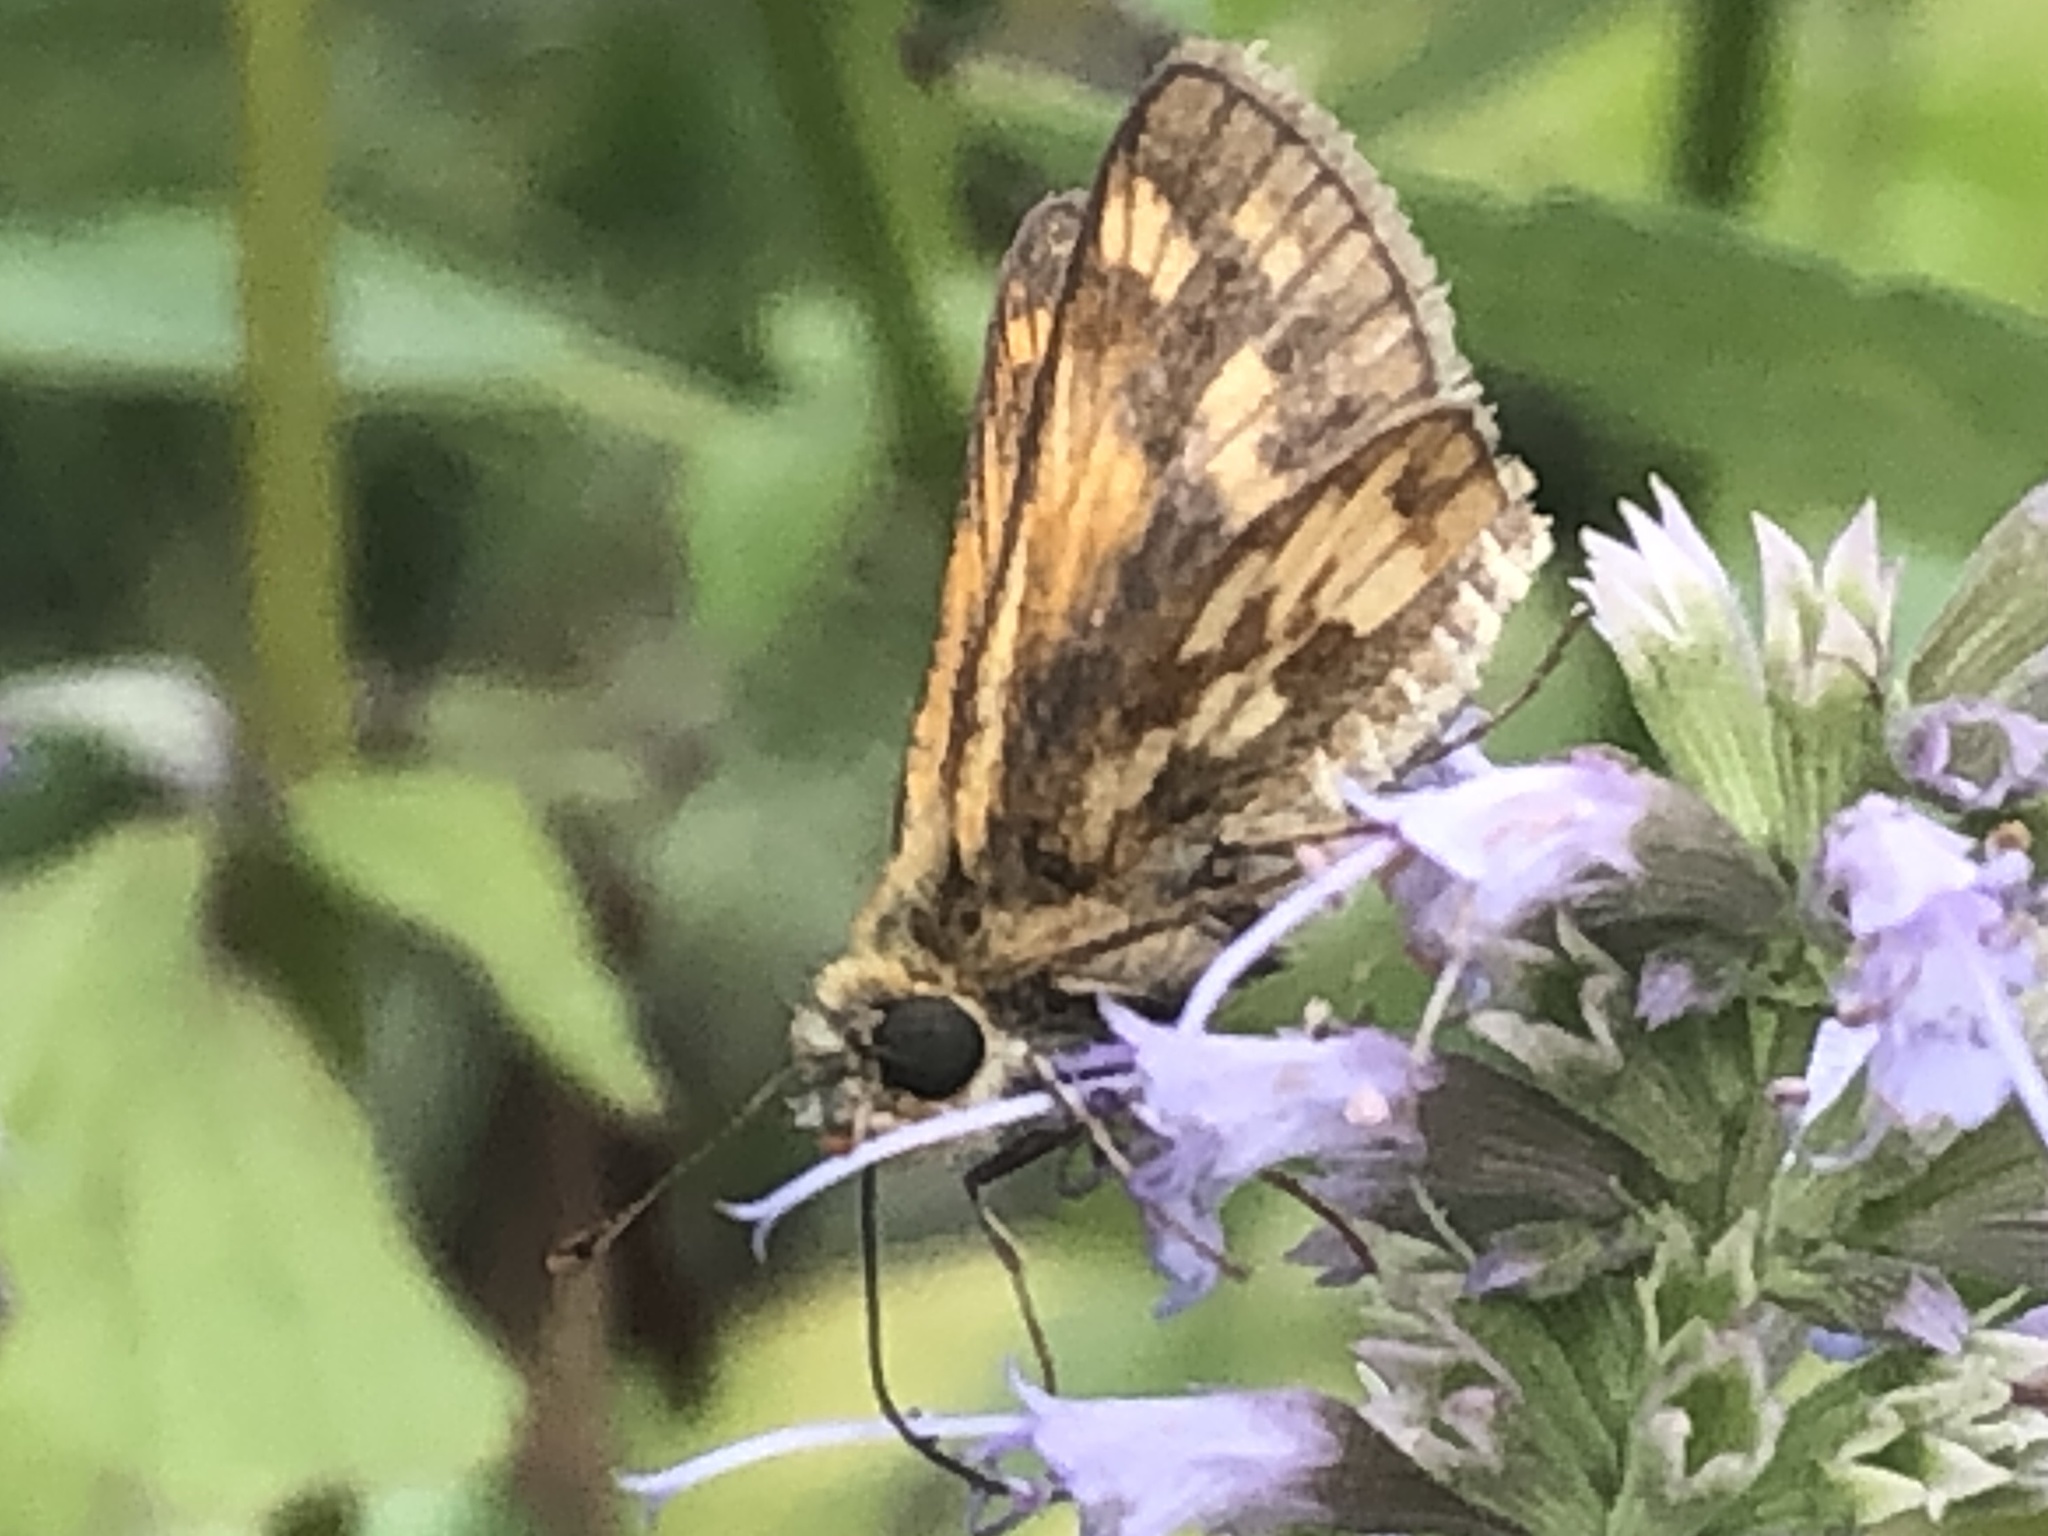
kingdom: Animalia
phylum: Arthropoda
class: Insecta
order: Lepidoptera
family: Hesperiidae
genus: Polites
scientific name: Polites coras
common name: Peck's skipper
